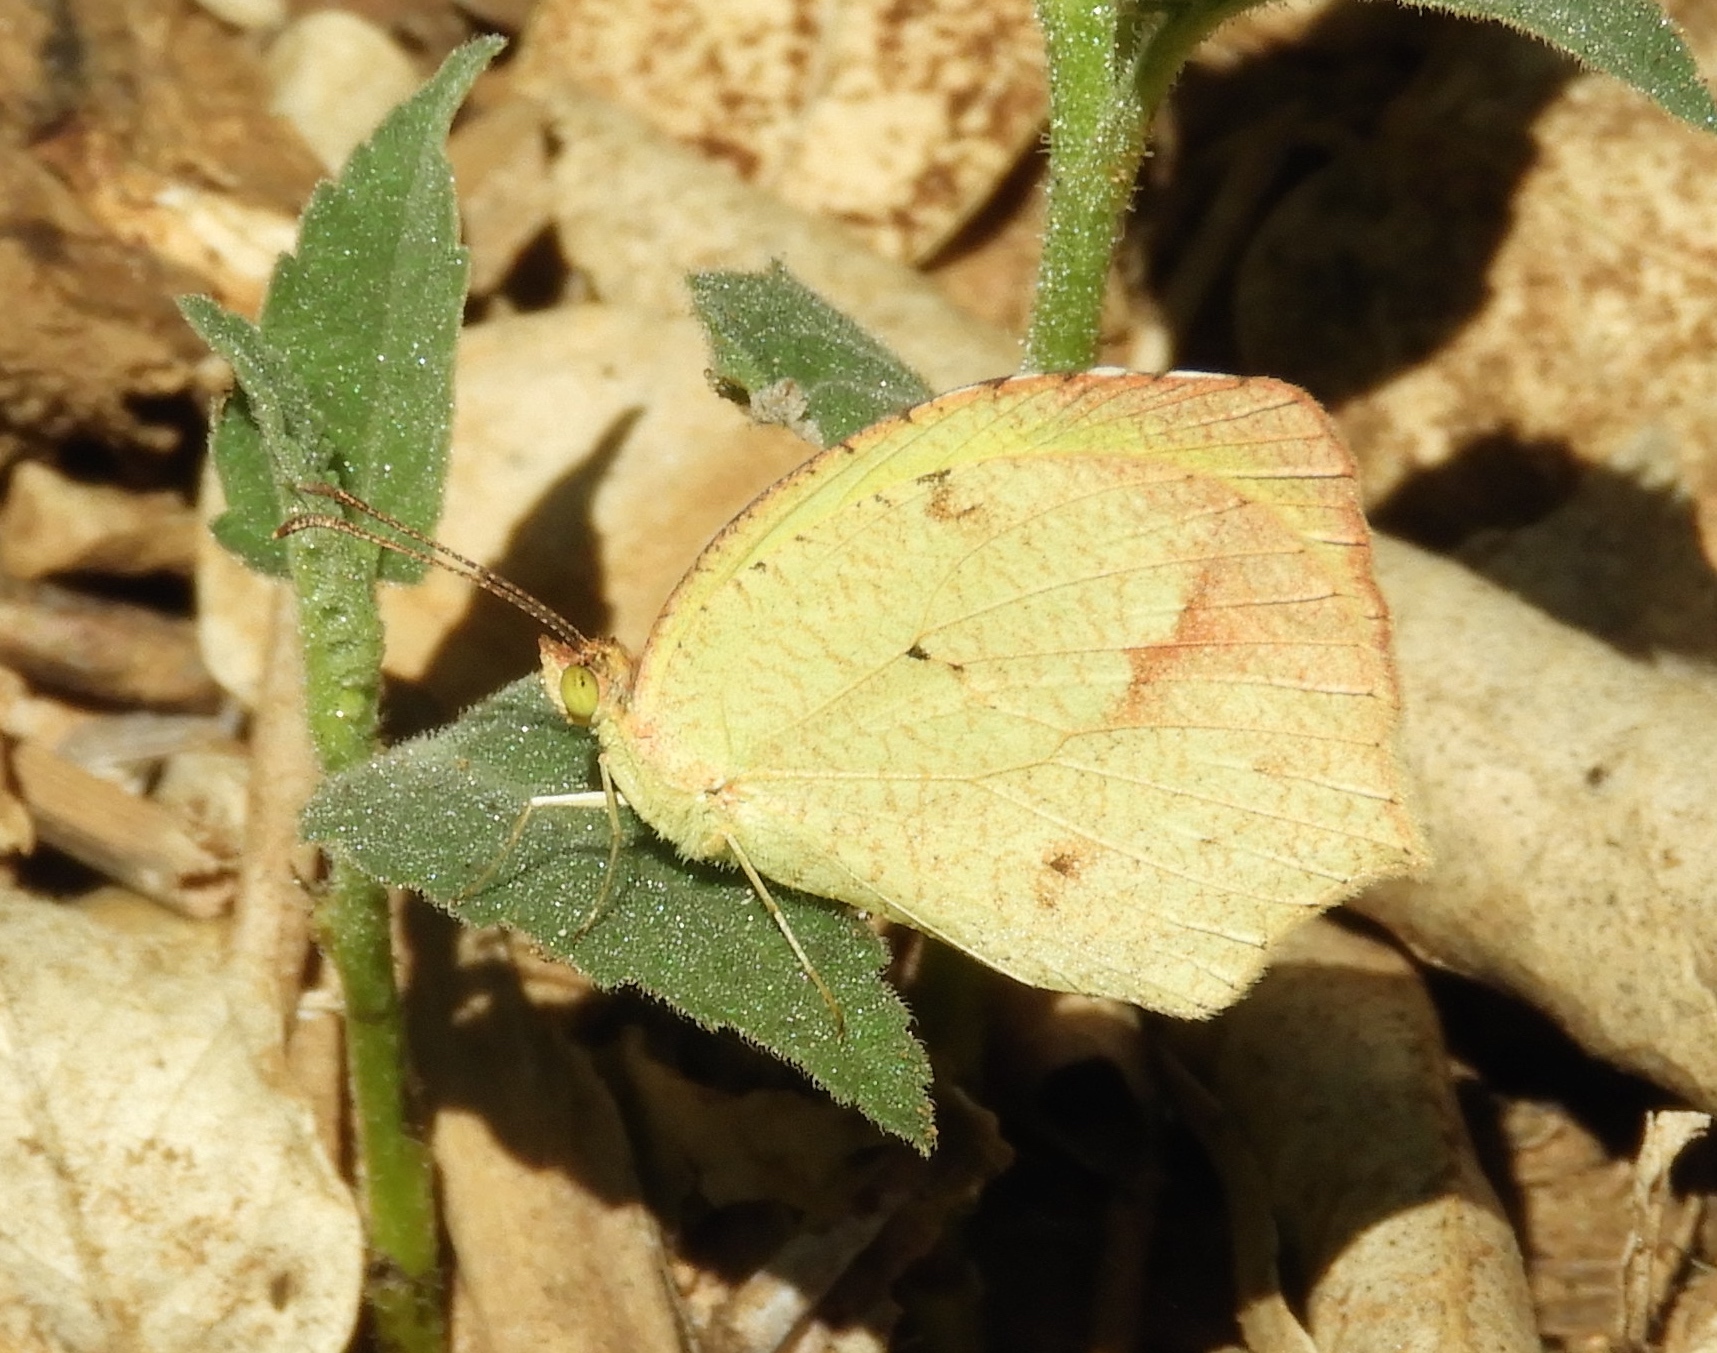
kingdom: Animalia
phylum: Arthropoda
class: Insecta
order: Lepidoptera
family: Pieridae
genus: Abaeis
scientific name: Abaeis mexicana
